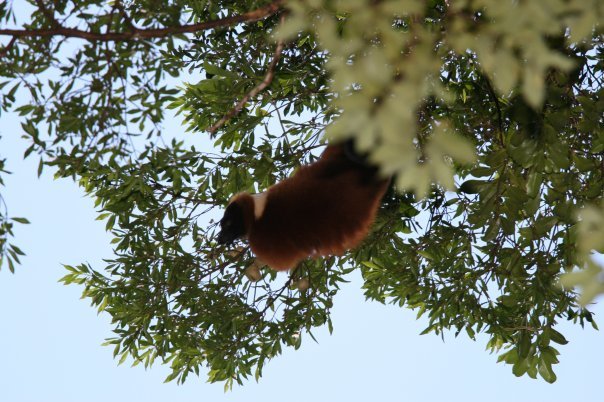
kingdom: Animalia
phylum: Chordata
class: Mammalia
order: Primates
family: Lemuridae
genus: Varecia
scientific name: Varecia rubra
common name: Red ruffed lemur
